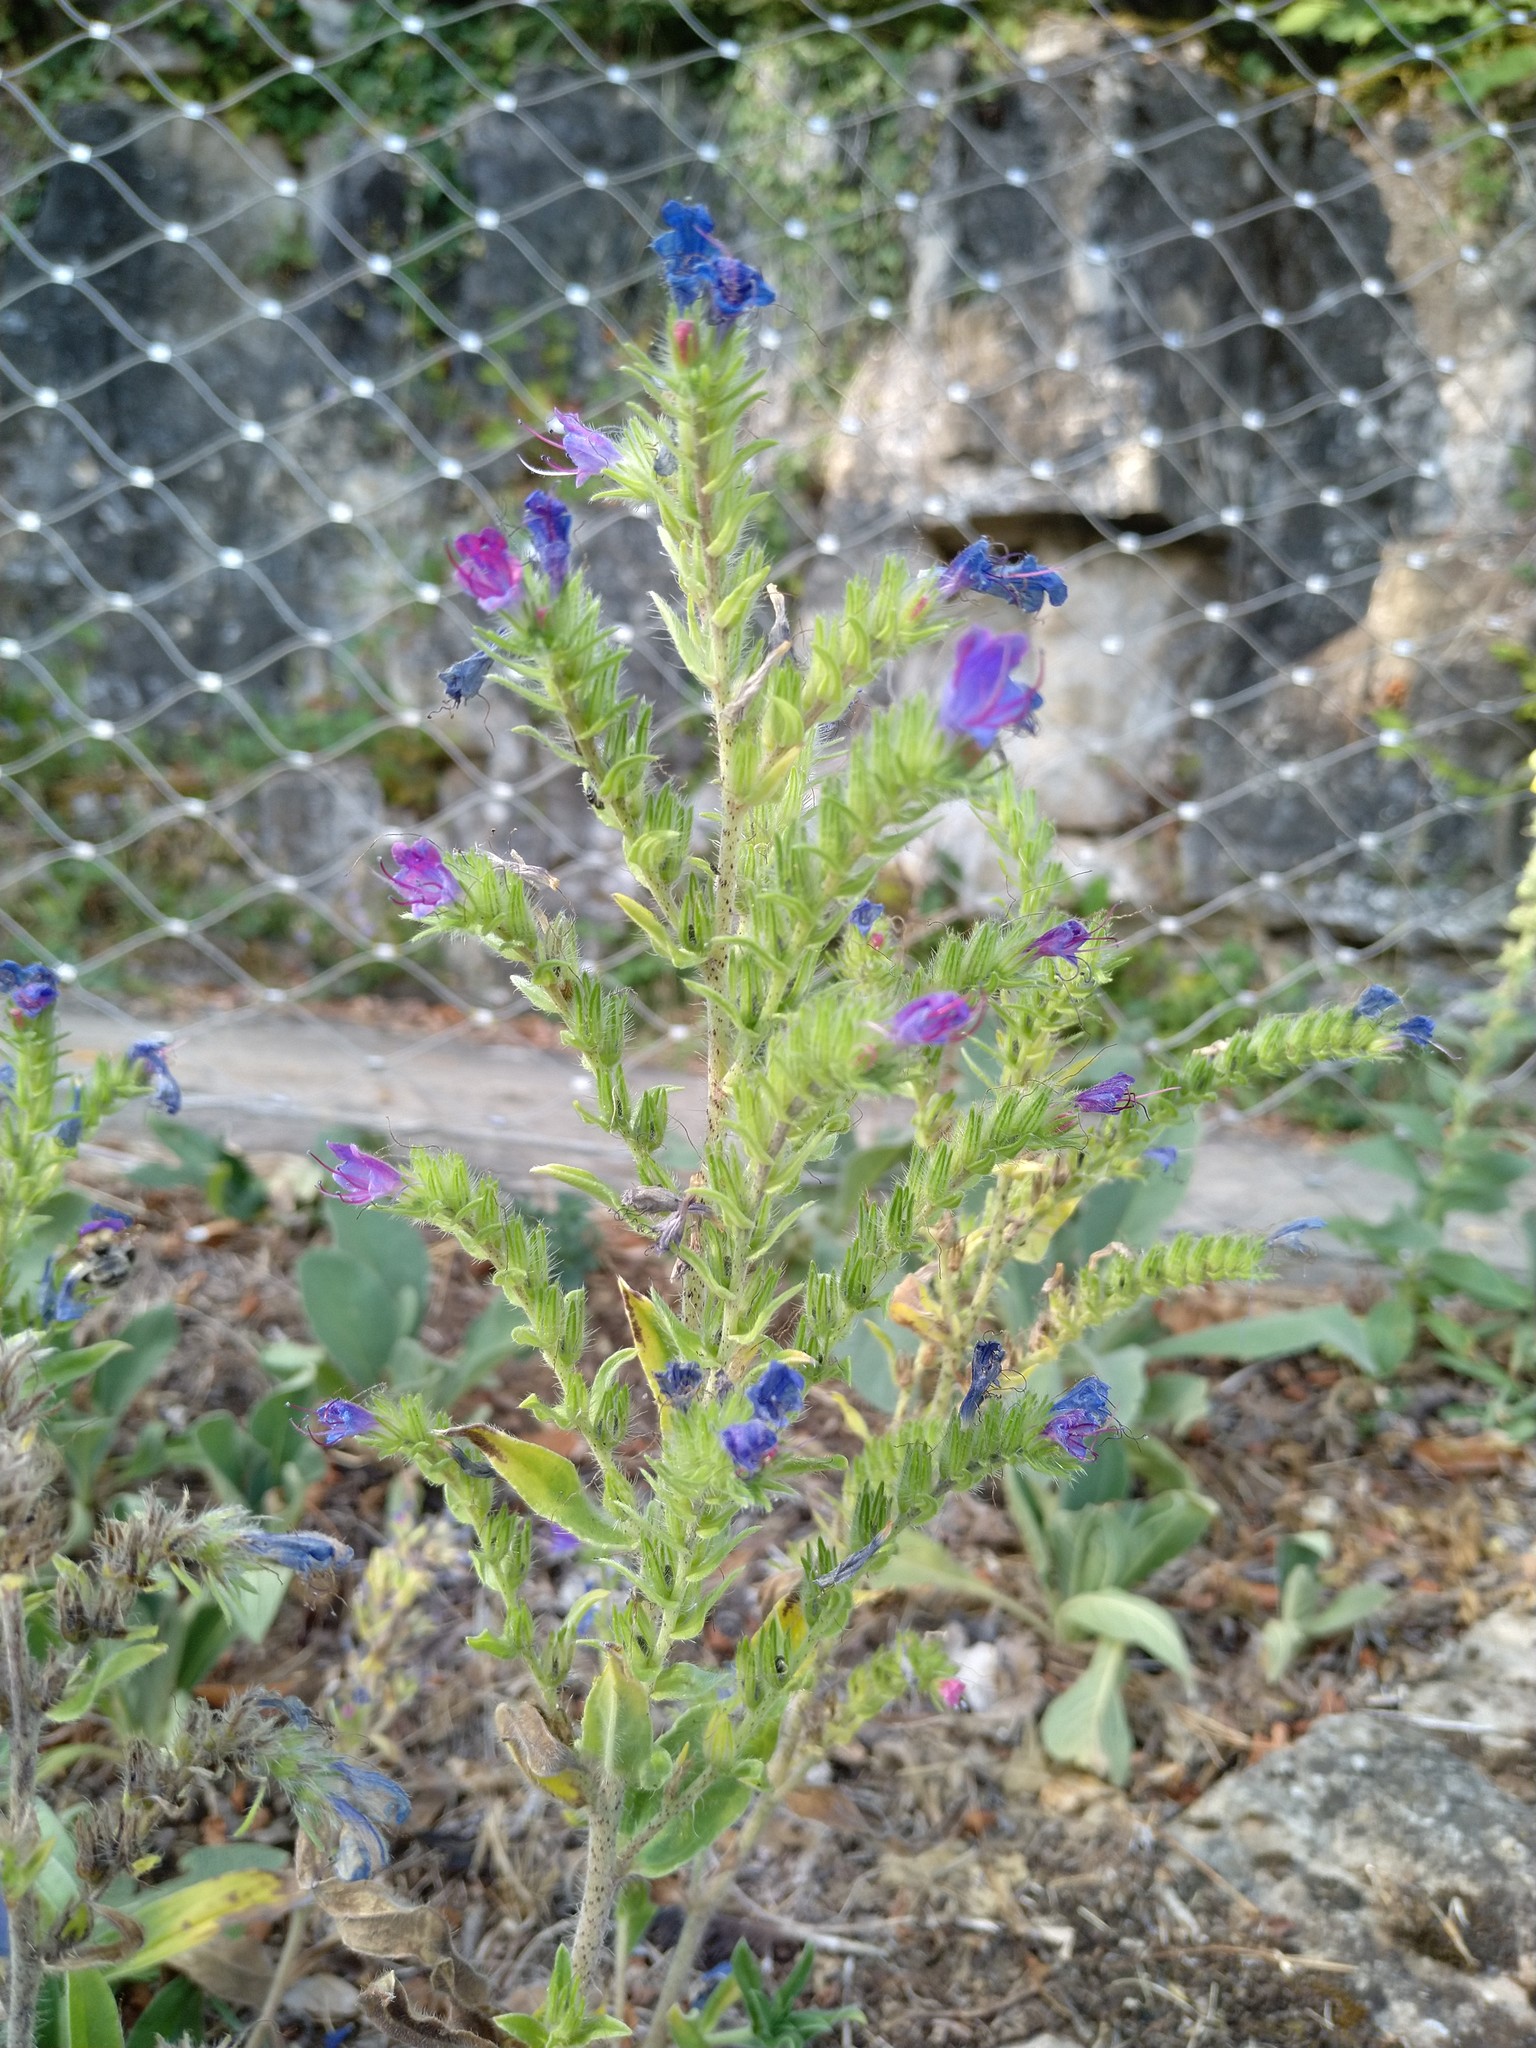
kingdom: Plantae
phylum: Tracheophyta
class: Magnoliopsida
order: Boraginales
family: Boraginaceae
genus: Echium
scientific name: Echium vulgare
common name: Common viper's bugloss
